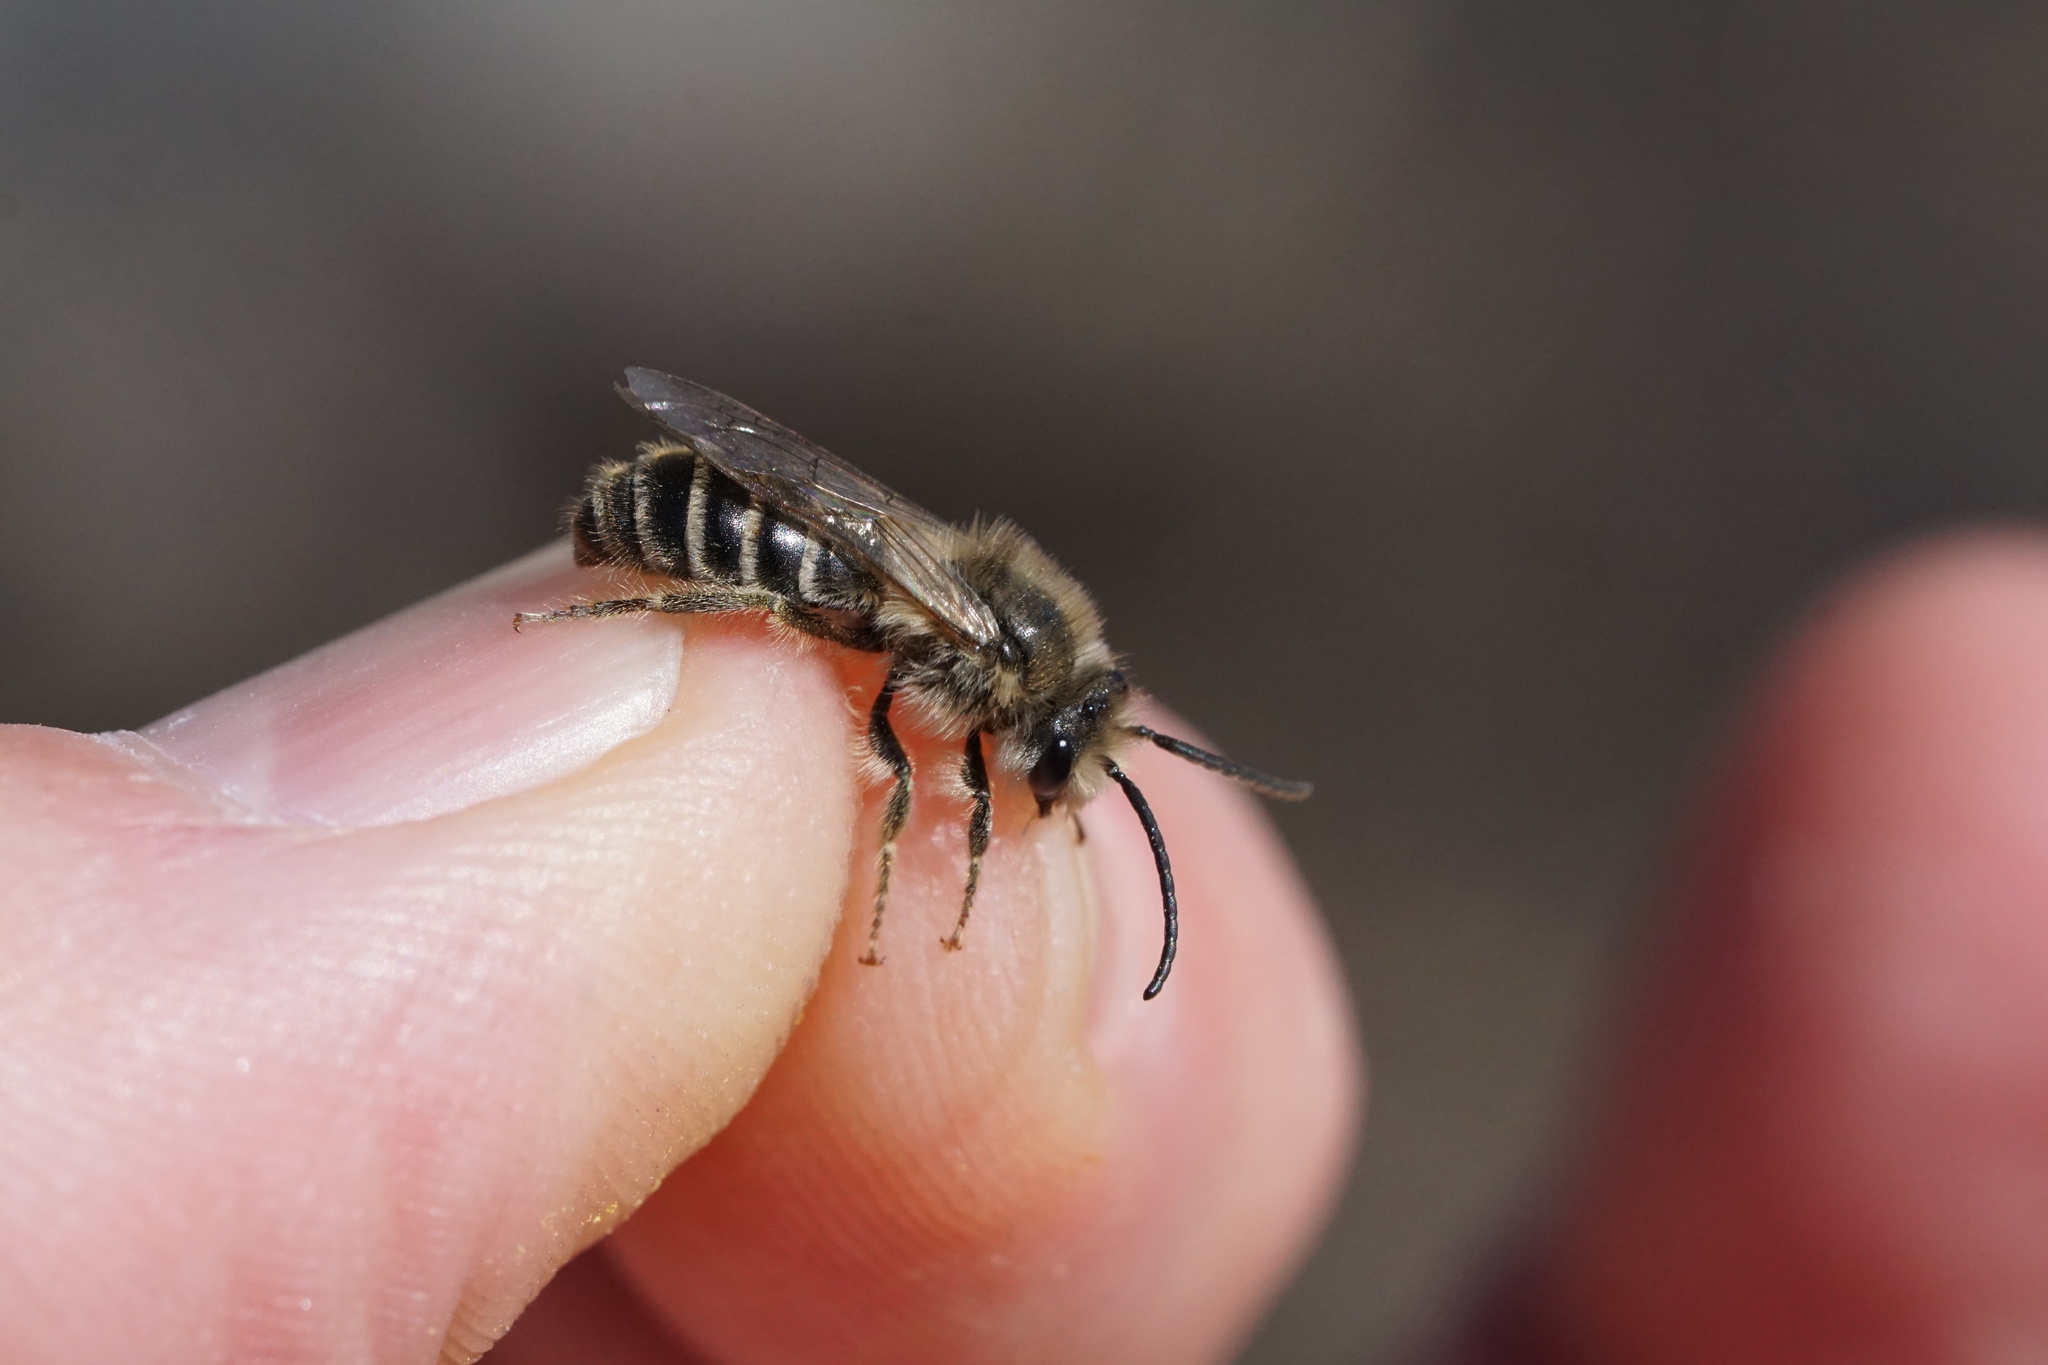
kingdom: Animalia
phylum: Arthropoda
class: Insecta
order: Hymenoptera
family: Colletidae
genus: Colletes
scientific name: Colletes inaequalis
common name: Unequal cellophane bee
